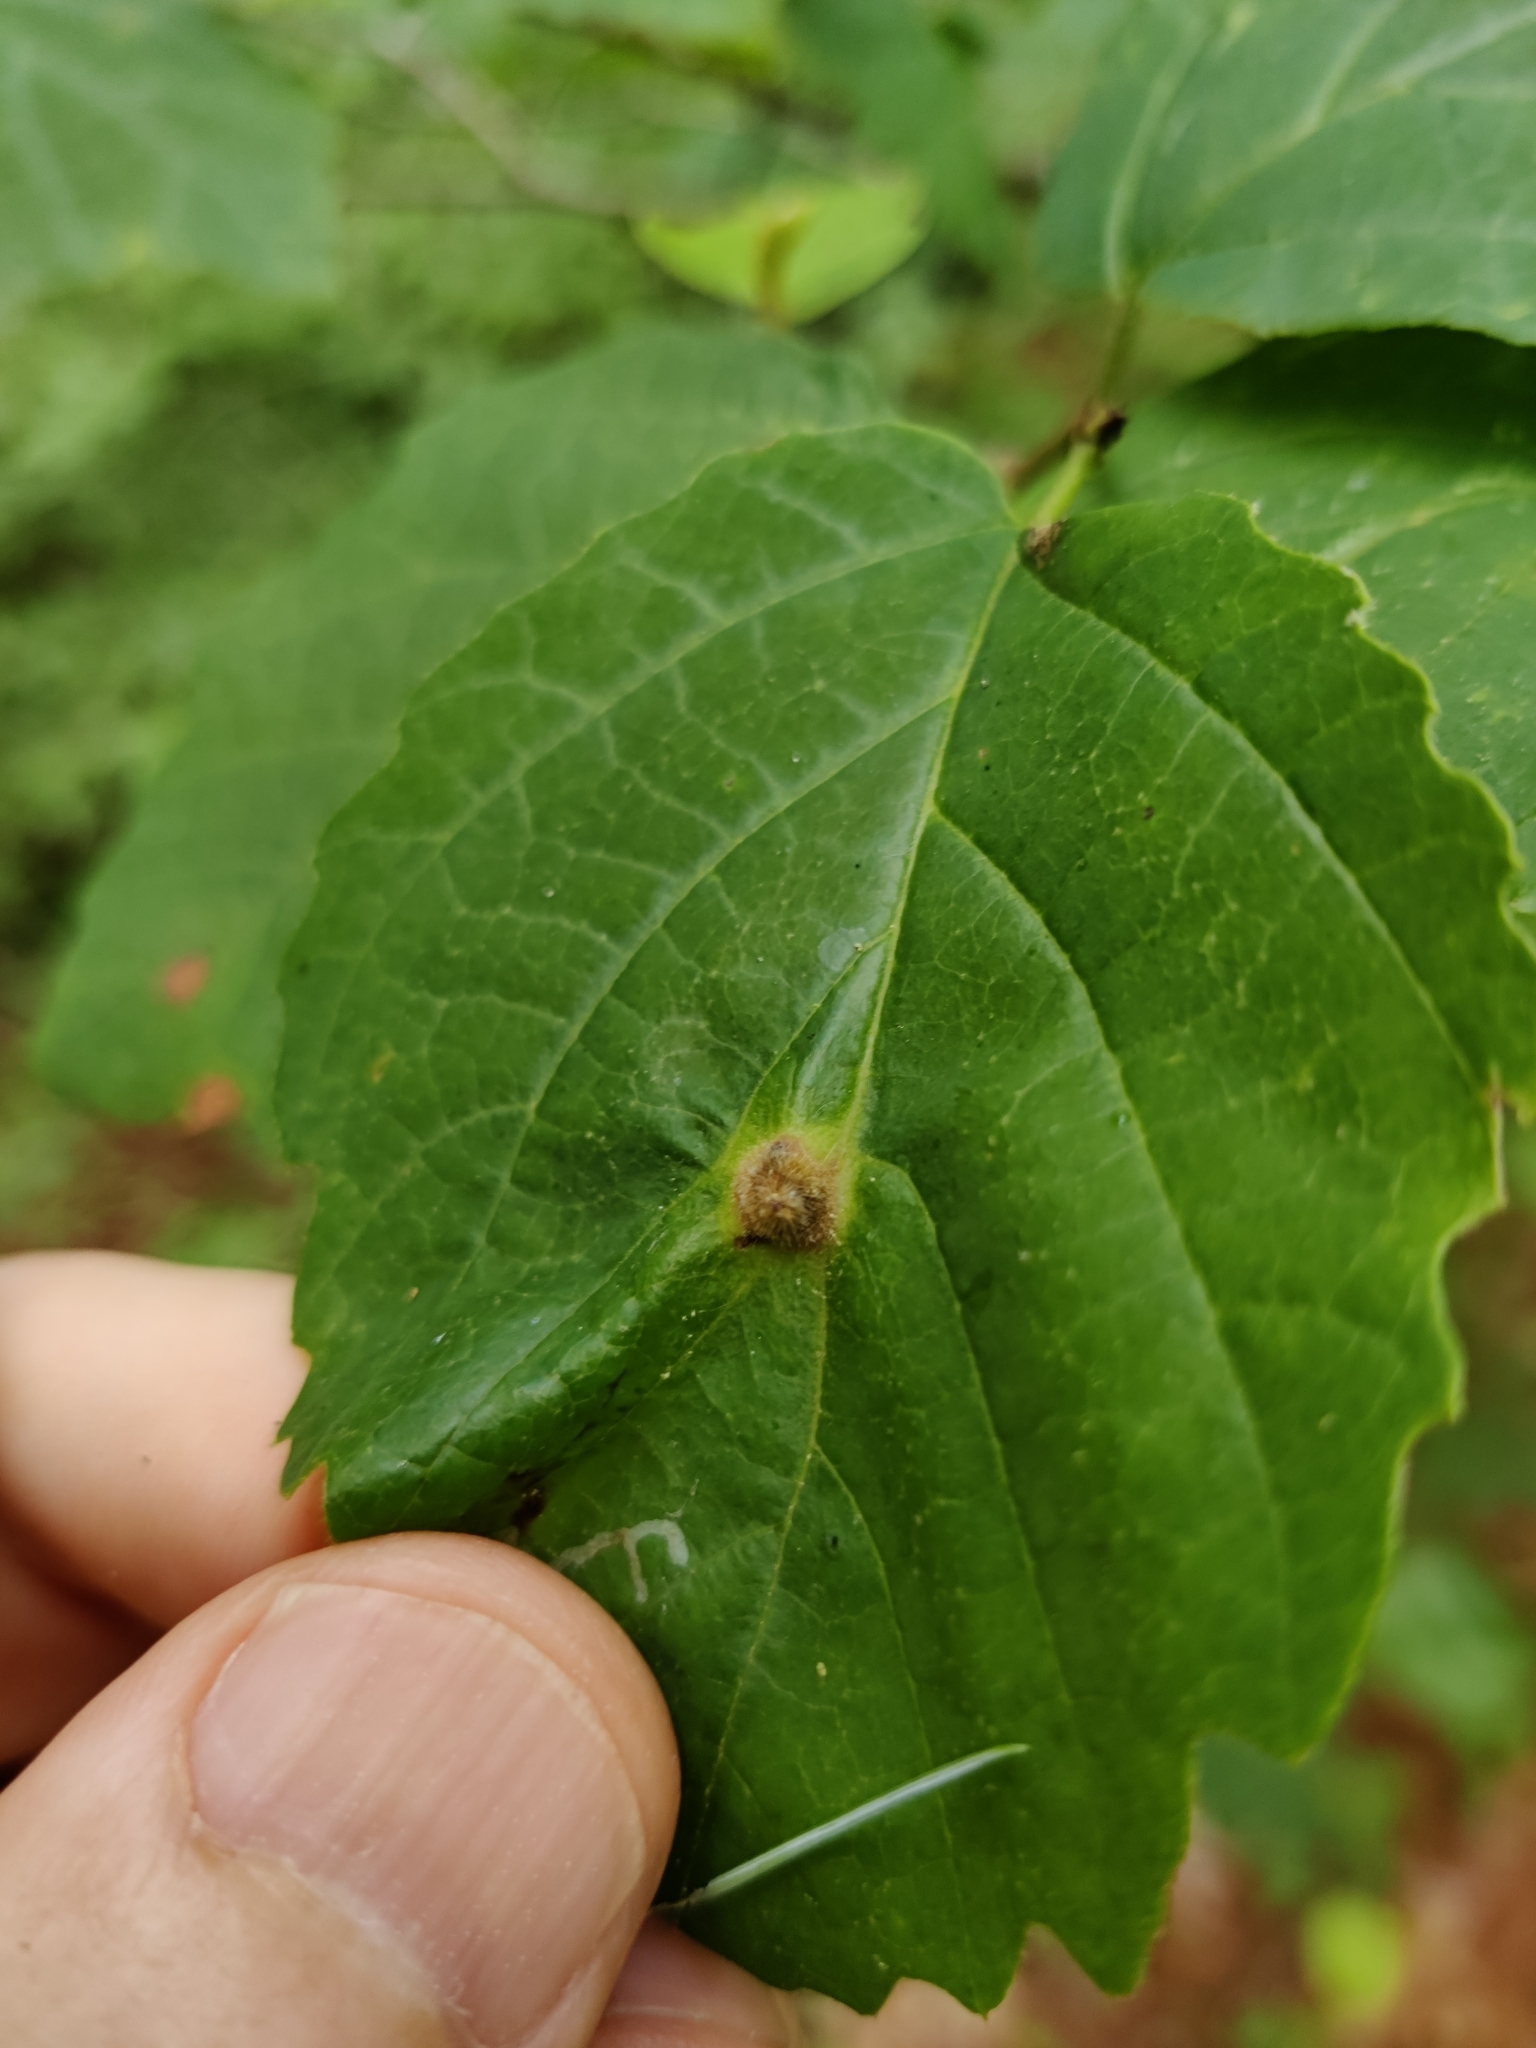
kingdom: Animalia
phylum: Arthropoda
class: Insecta
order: Hemiptera
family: Aphididae
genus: Hormaphis
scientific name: Hormaphis hamamelidis
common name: Witch-hazel cone gall aphid
